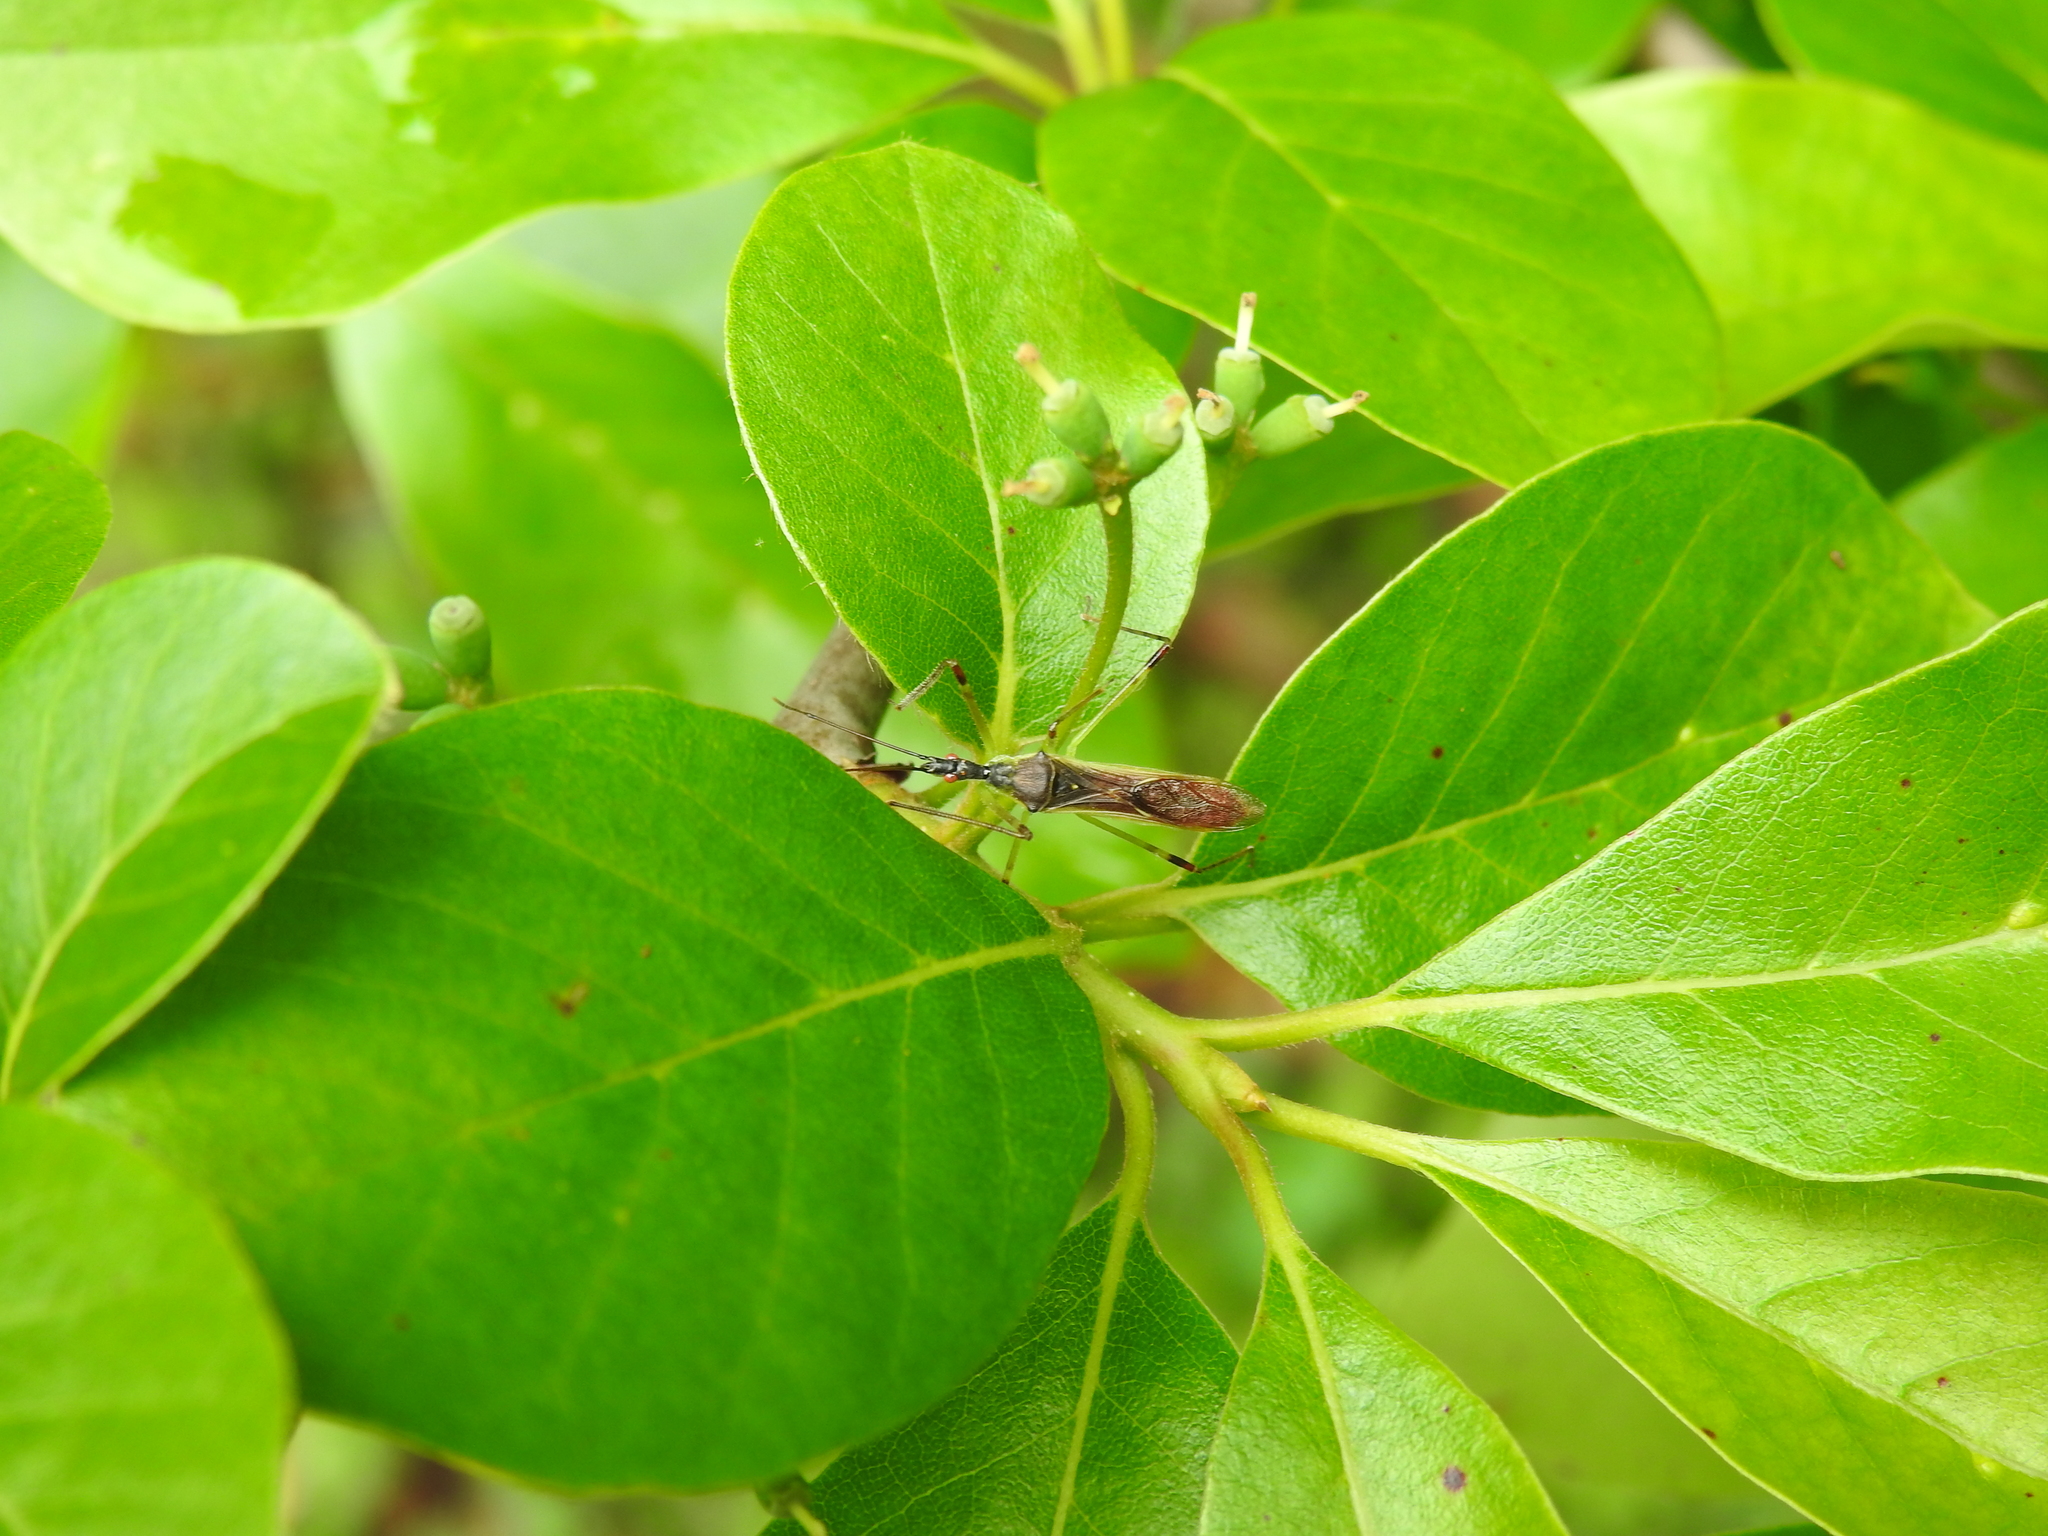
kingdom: Animalia
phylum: Arthropoda
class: Insecta
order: Hemiptera
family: Reduviidae
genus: Zelus
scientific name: Zelus luridus
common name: Pale green assassin bug
